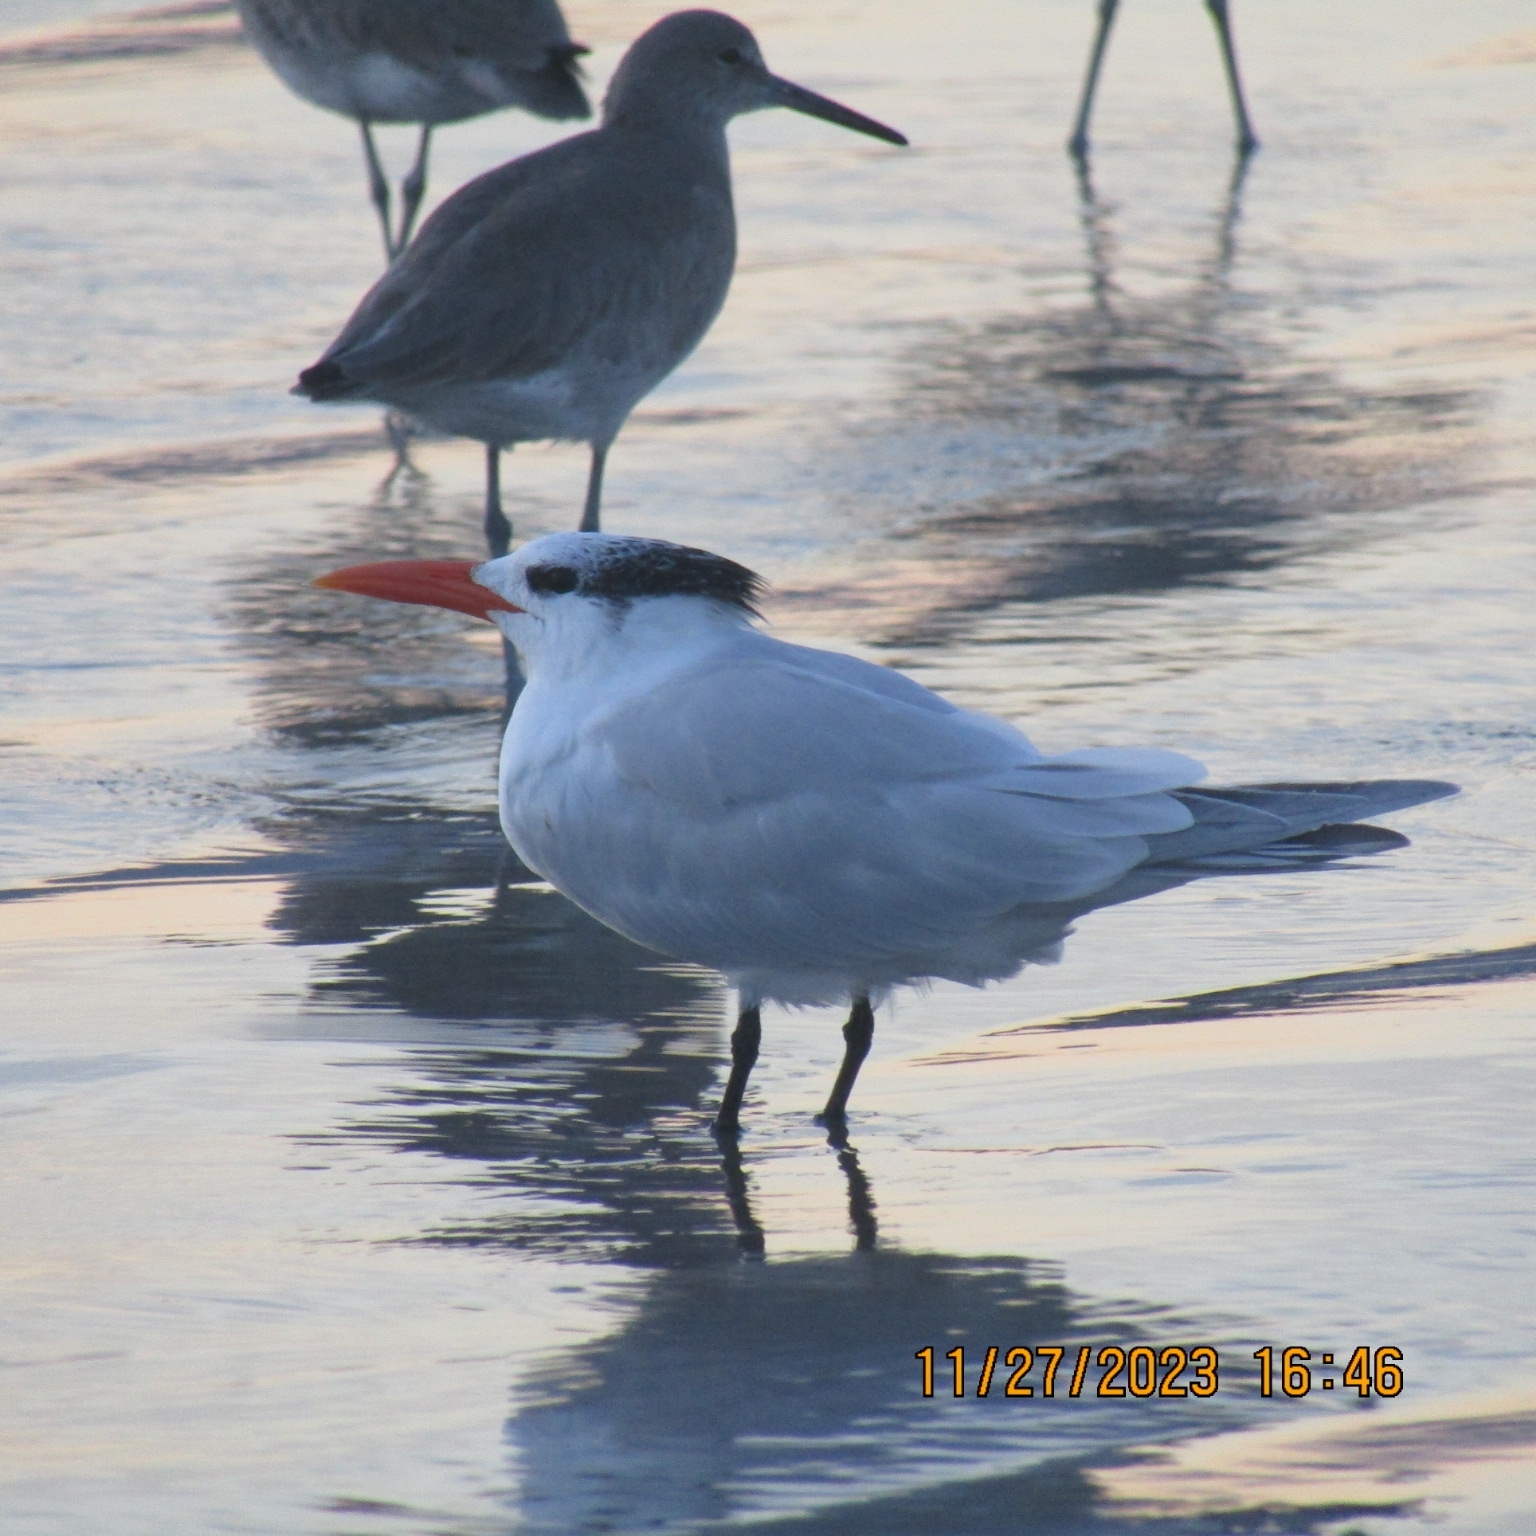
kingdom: Animalia
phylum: Chordata
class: Aves
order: Charadriiformes
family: Laridae
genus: Thalasseus
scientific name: Thalasseus maximus
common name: Royal tern
